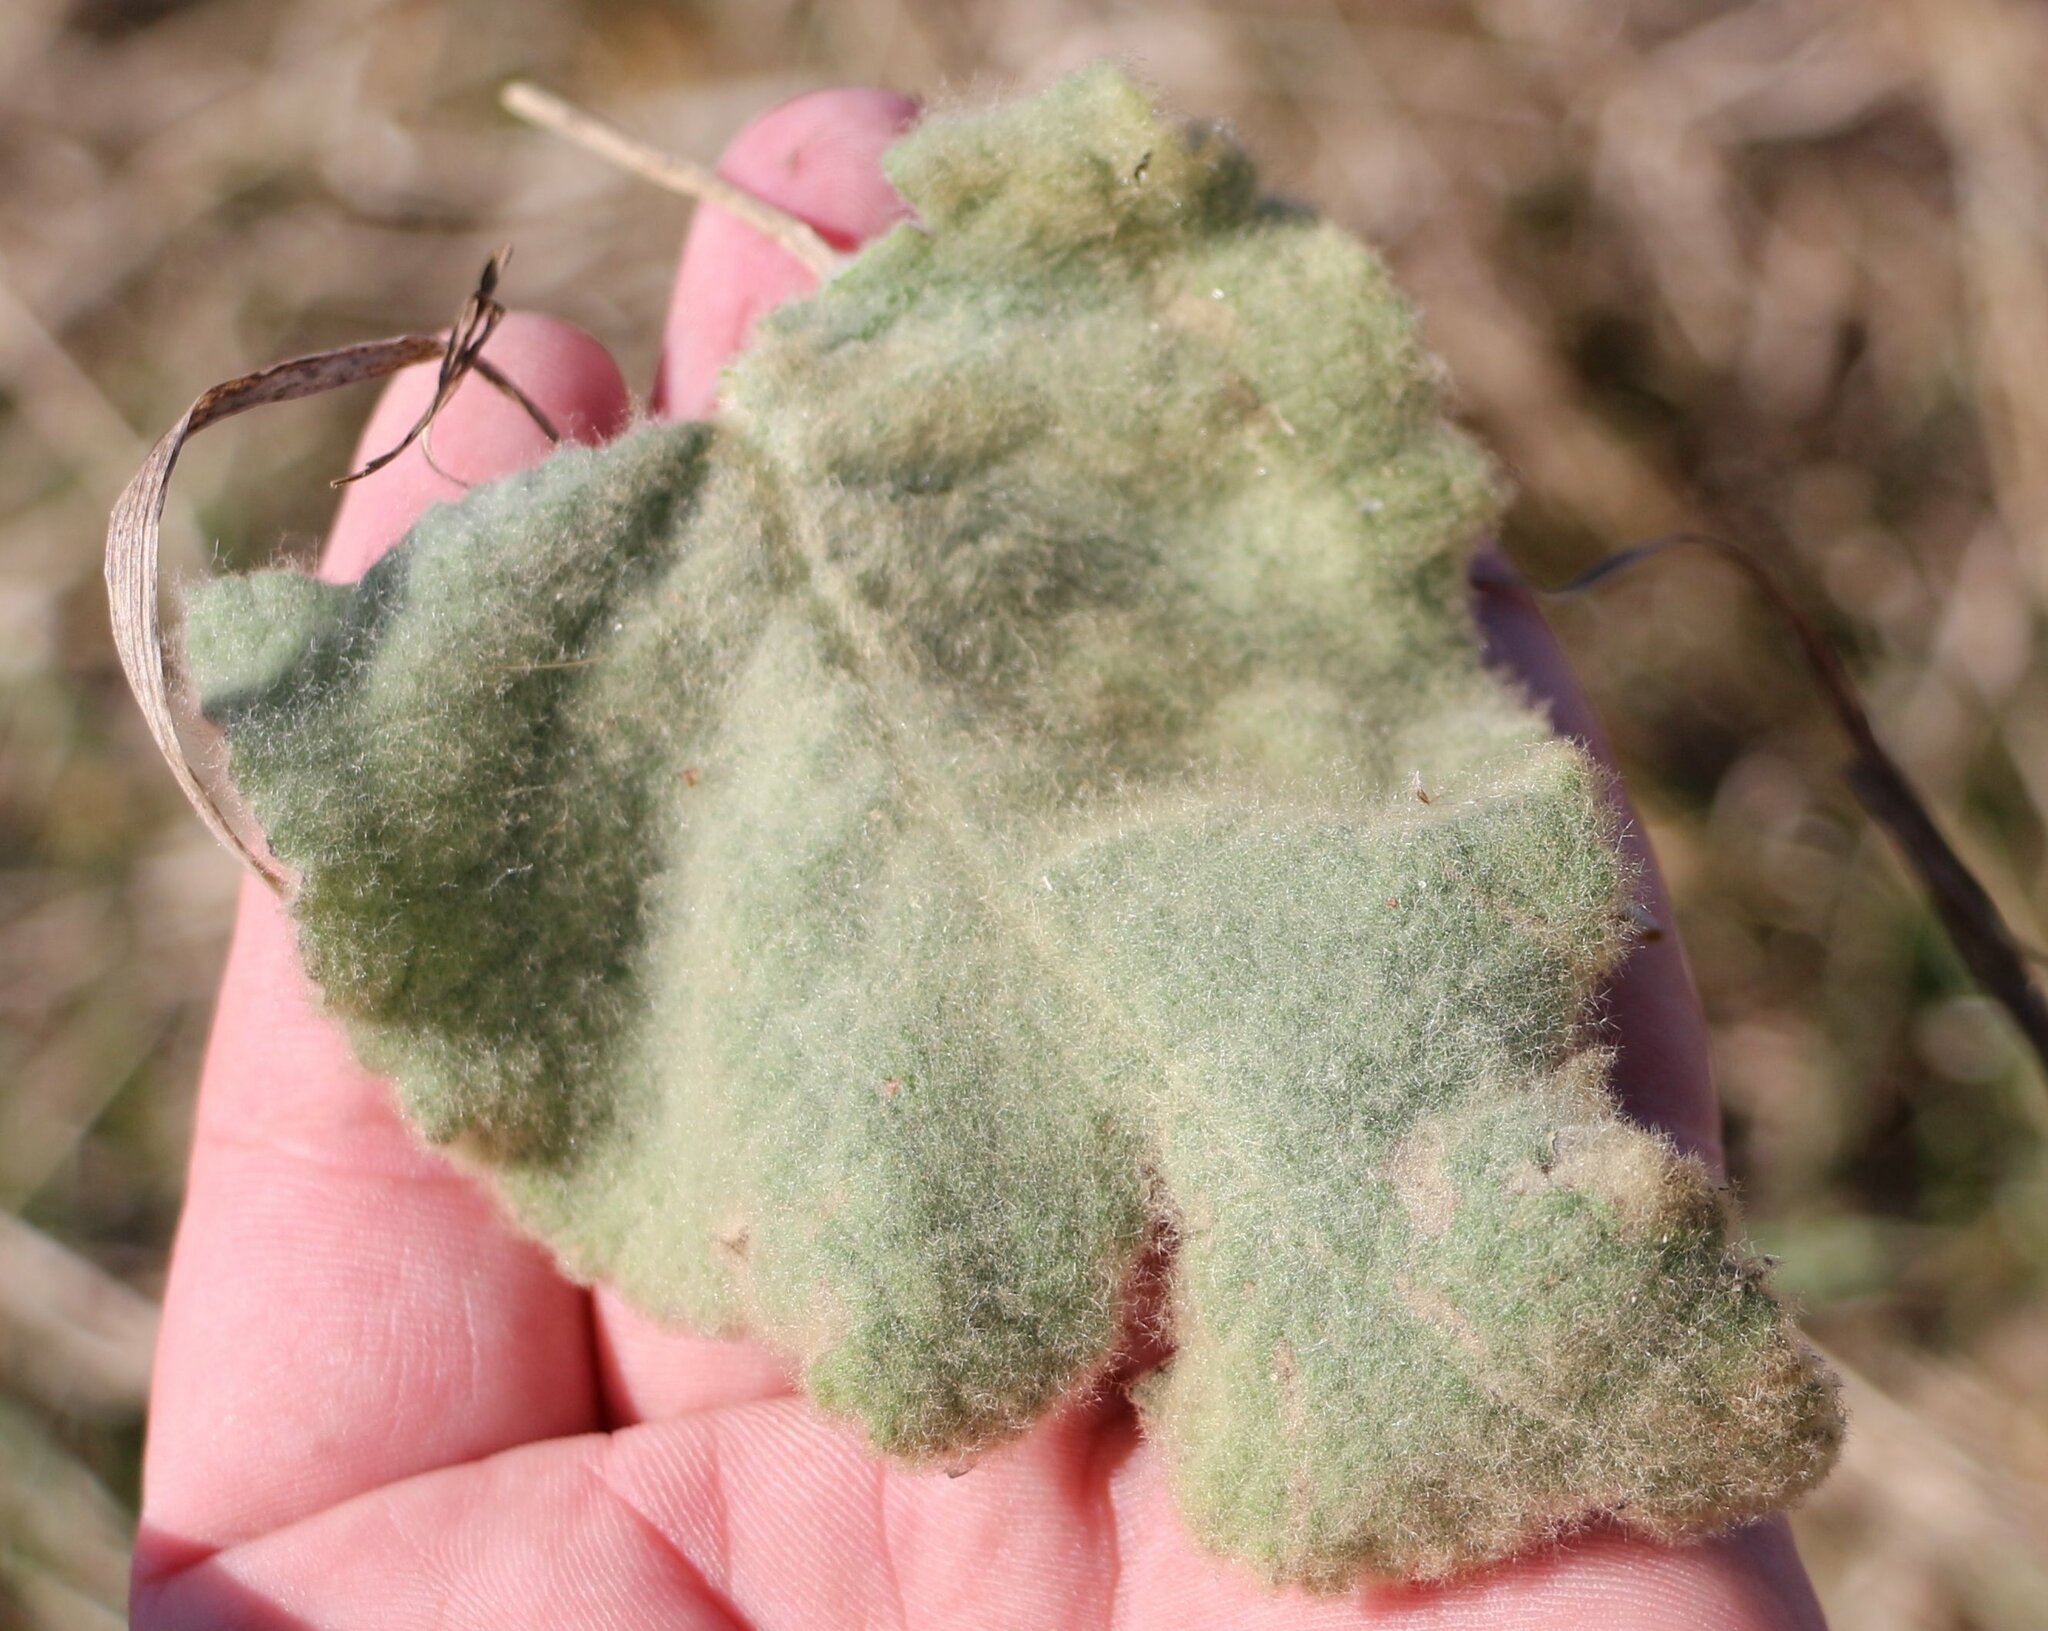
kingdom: Plantae
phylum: Tracheophyta
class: Magnoliopsida
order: Lamiales
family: Scrophulariaceae
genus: Verbascum
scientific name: Verbascum thapsus
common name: Common mullein
